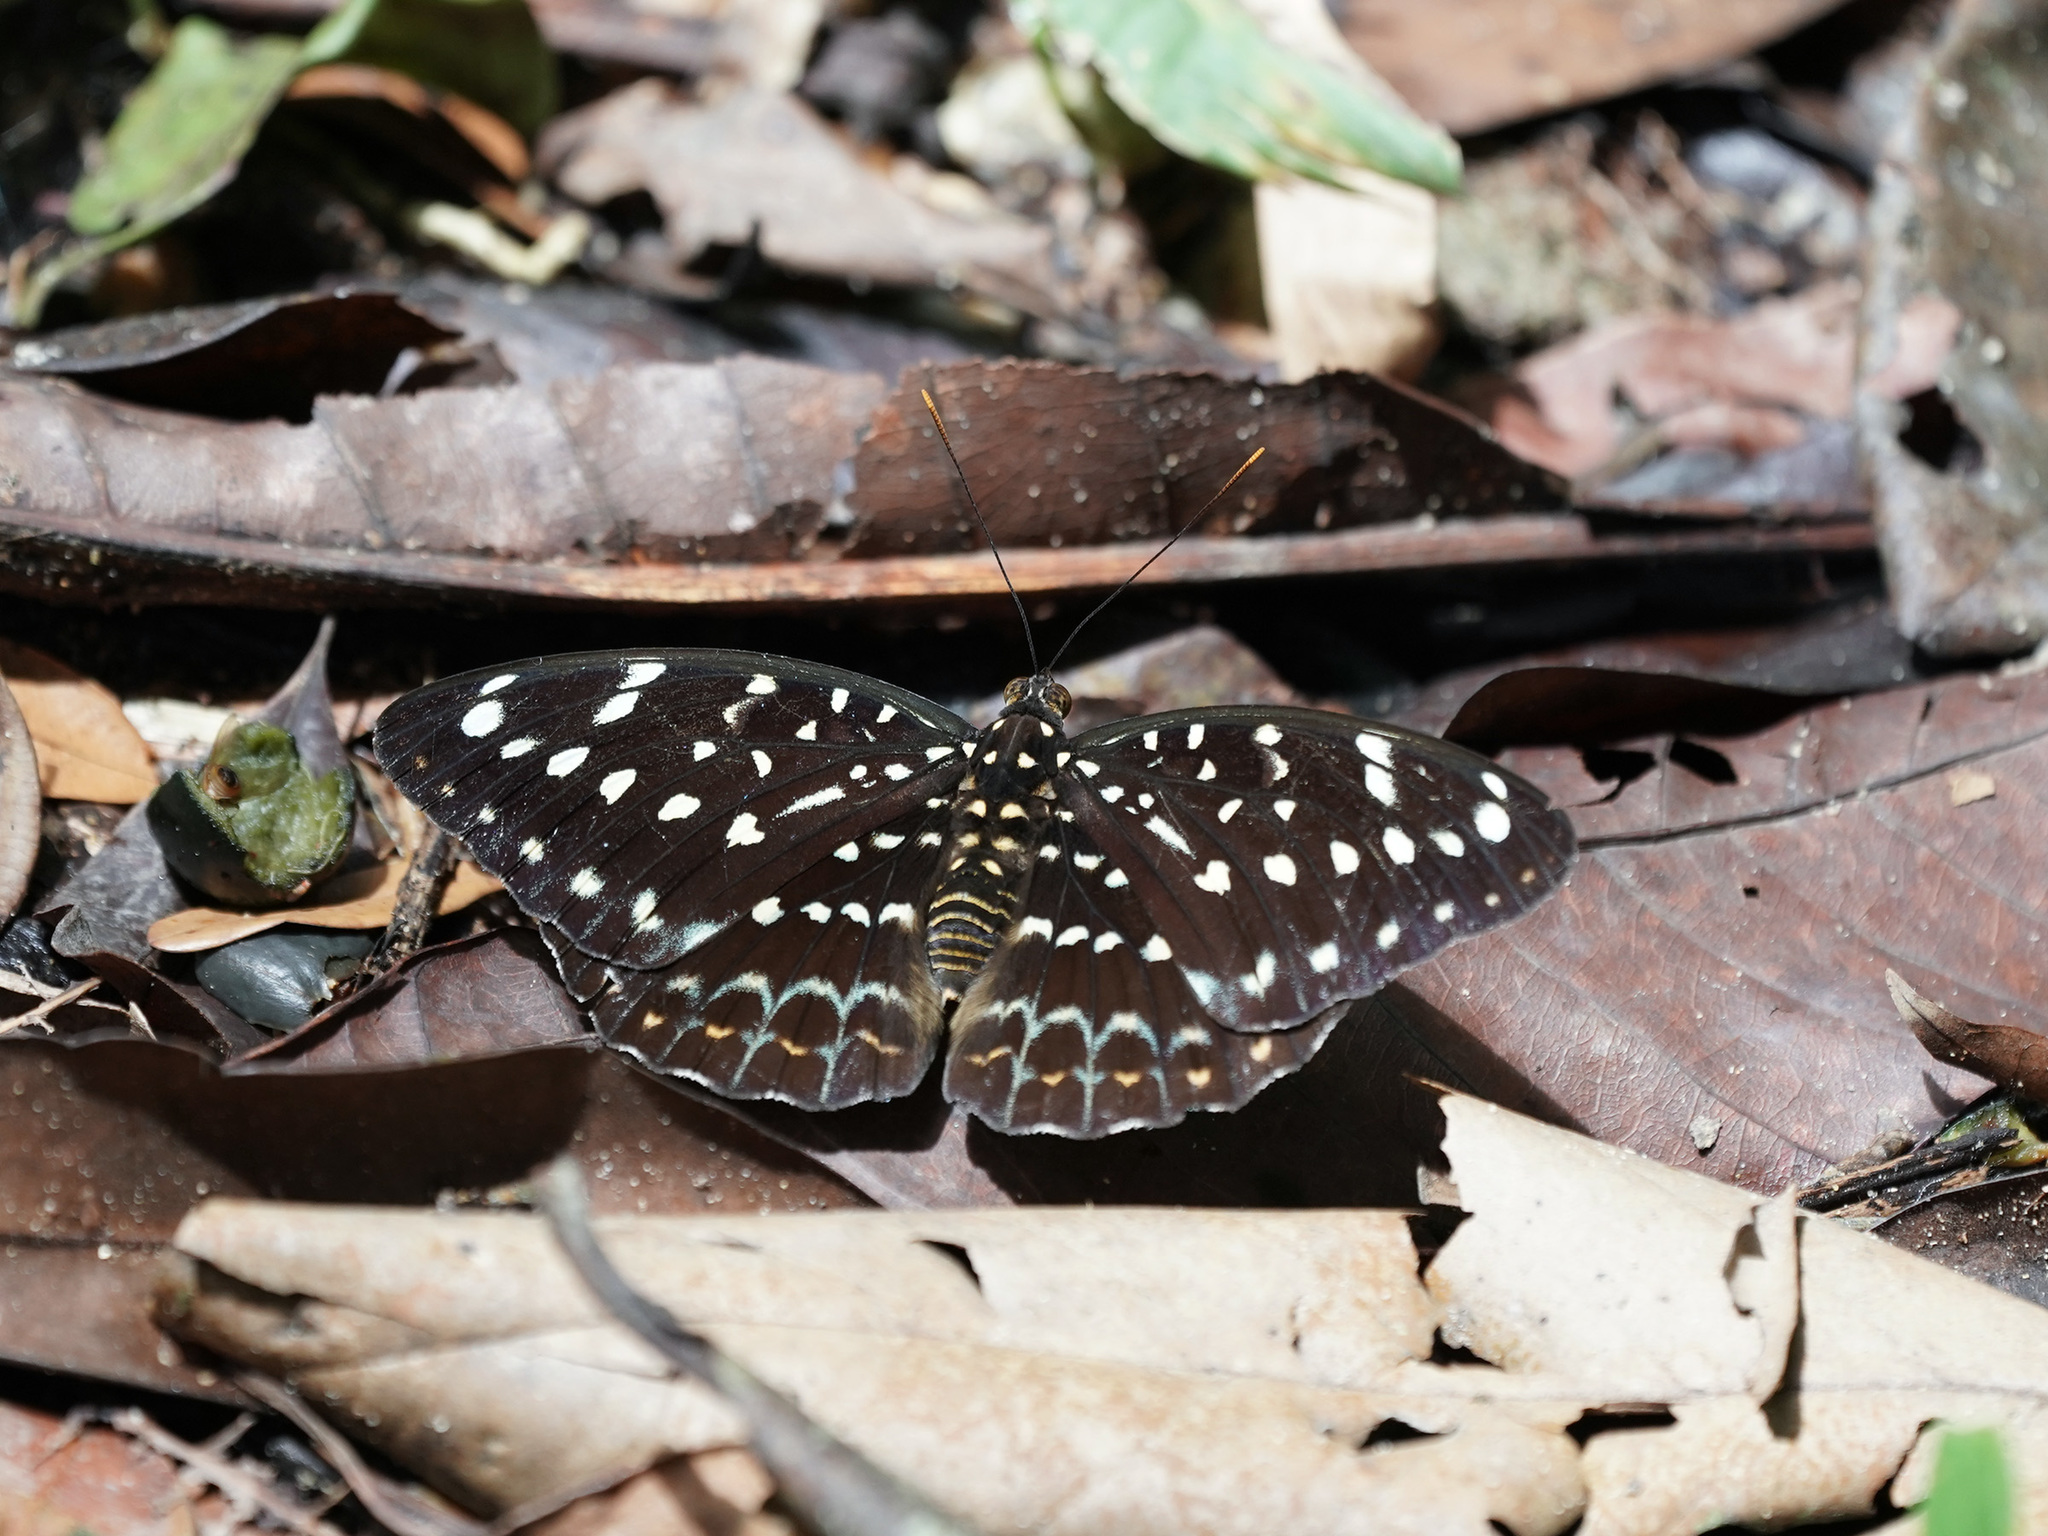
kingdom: Animalia
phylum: Arthropoda
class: Insecta
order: Lepidoptera
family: Nymphalidae
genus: Lexias
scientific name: Lexias pardalis
